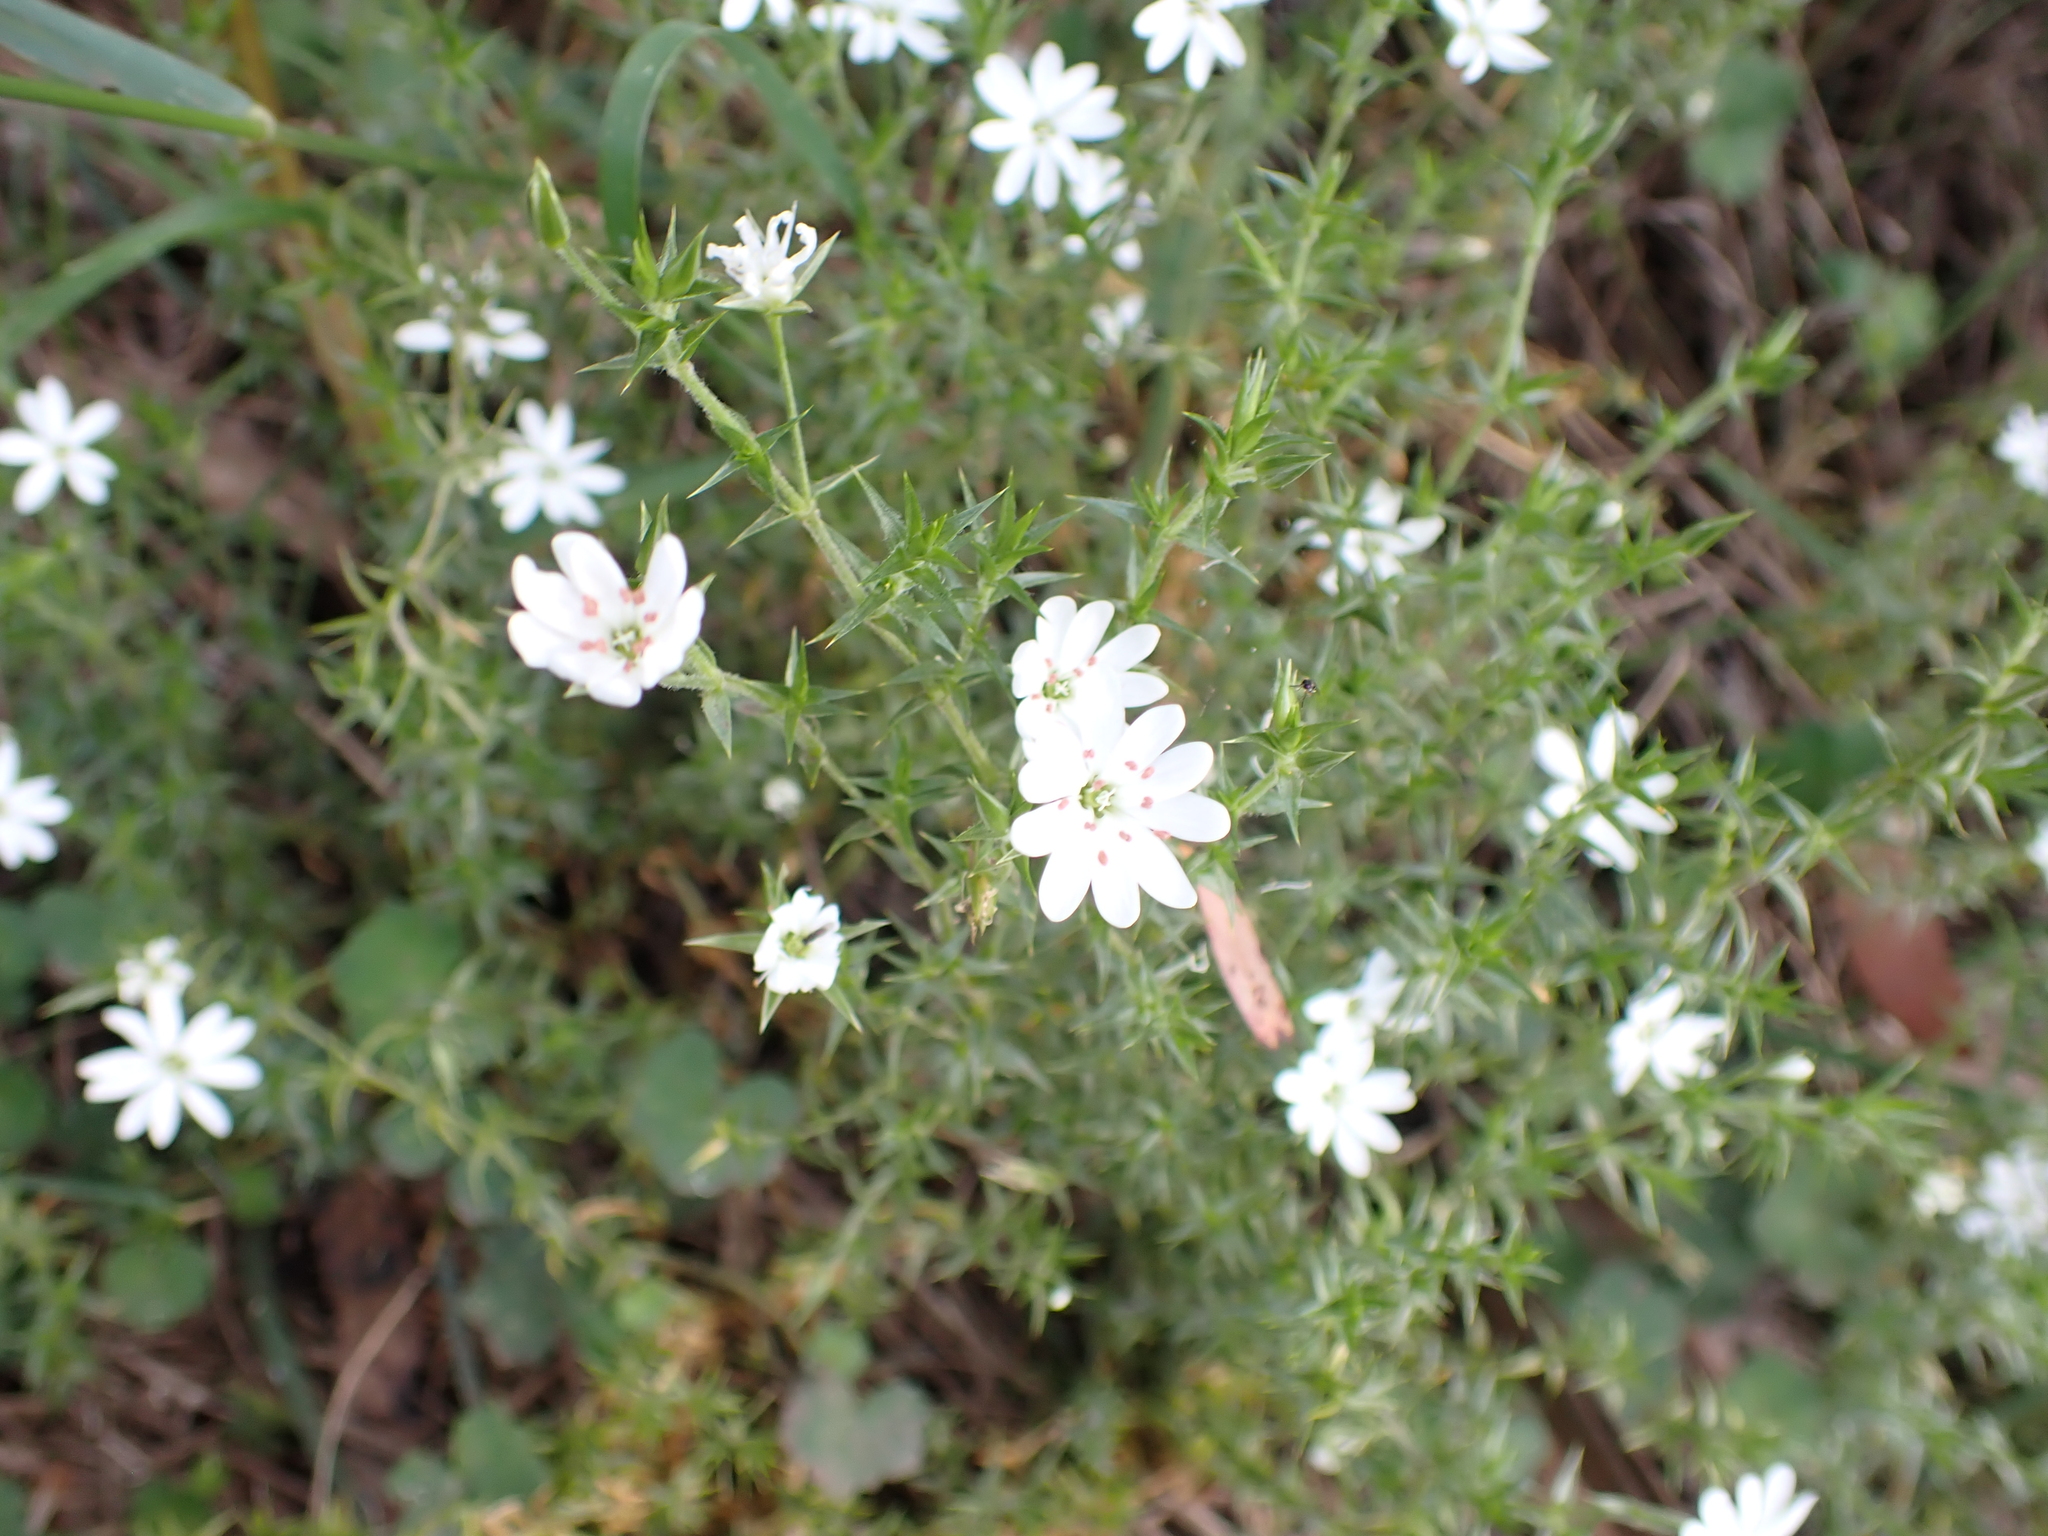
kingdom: Plantae
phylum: Tracheophyta
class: Magnoliopsida
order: Caryophyllales
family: Caryophyllaceae
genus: Stellaria
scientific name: Stellaria pungens
